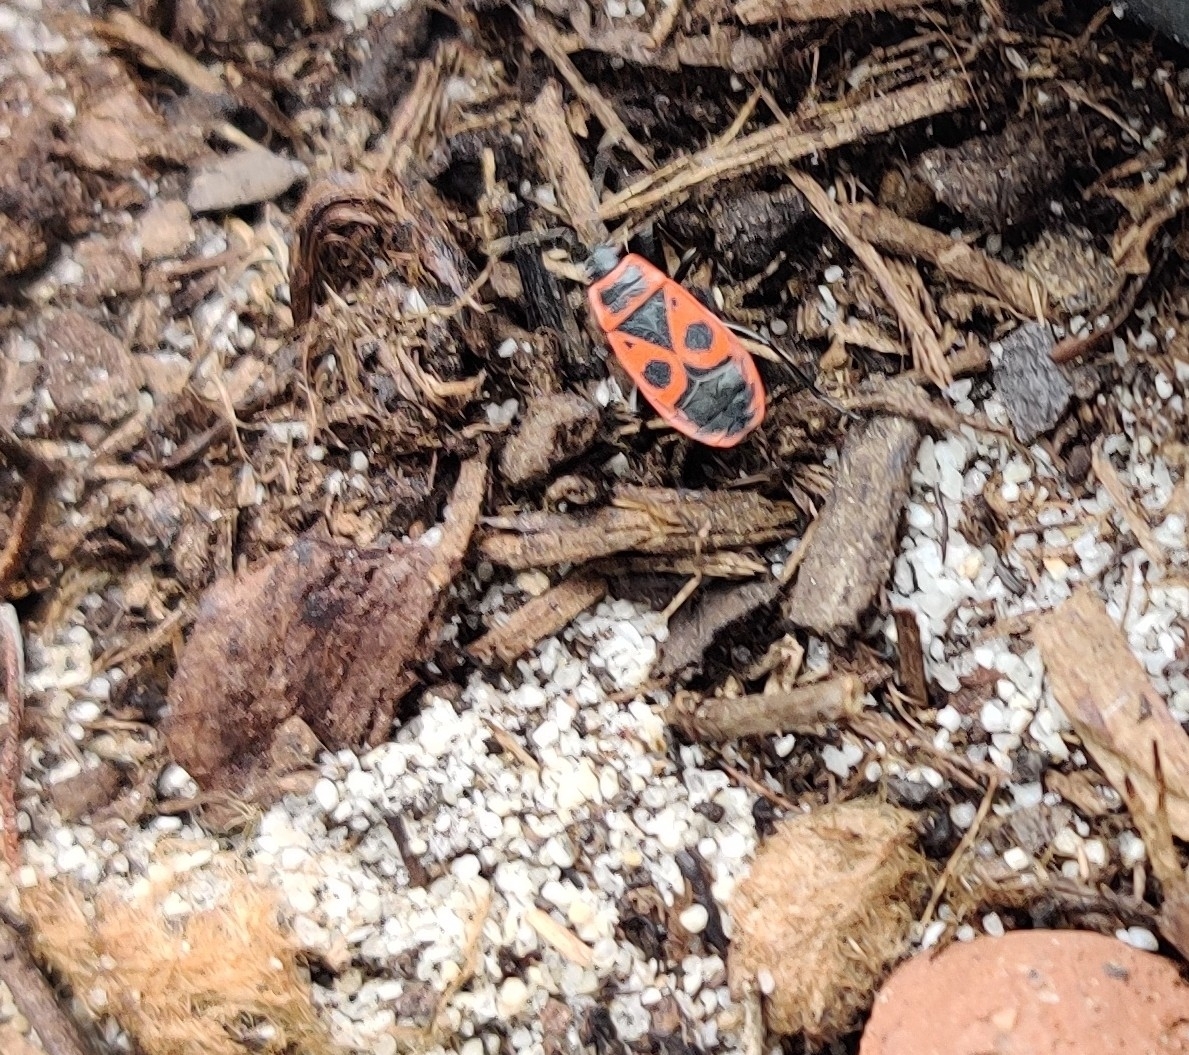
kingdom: Animalia
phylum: Arthropoda
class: Insecta
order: Hemiptera
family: Pyrrhocoridae
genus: Pyrrhocoris
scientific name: Pyrrhocoris apterus
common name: Firebug
